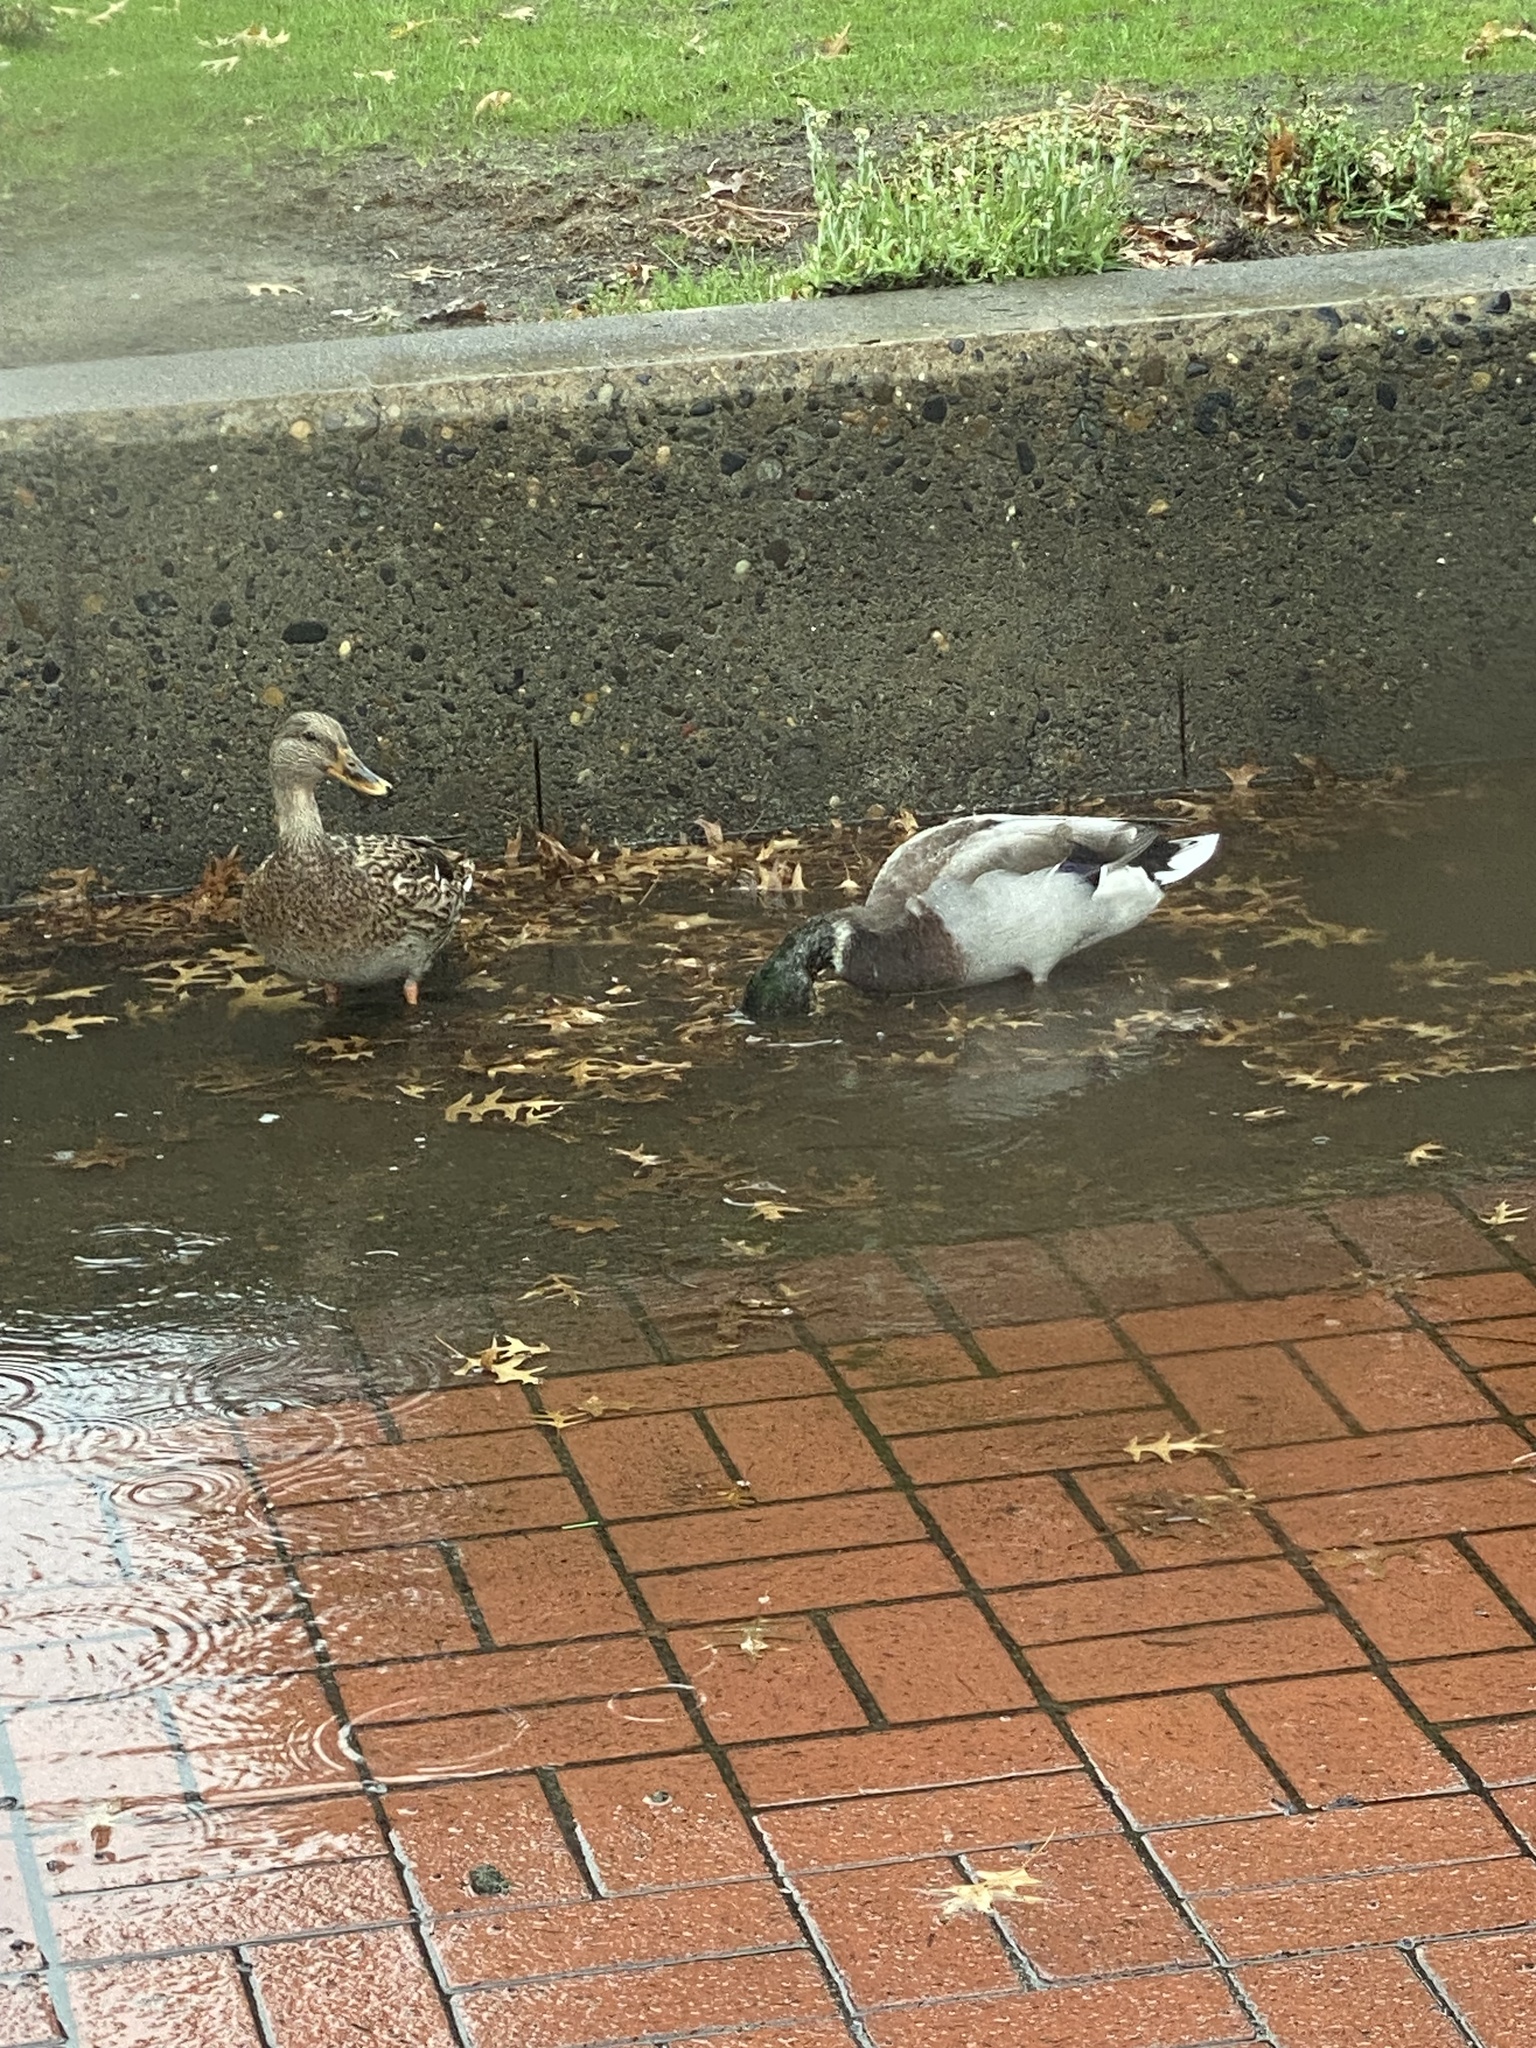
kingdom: Animalia
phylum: Chordata
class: Aves
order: Anseriformes
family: Anatidae
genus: Anas
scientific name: Anas platyrhynchos
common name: Mallard
